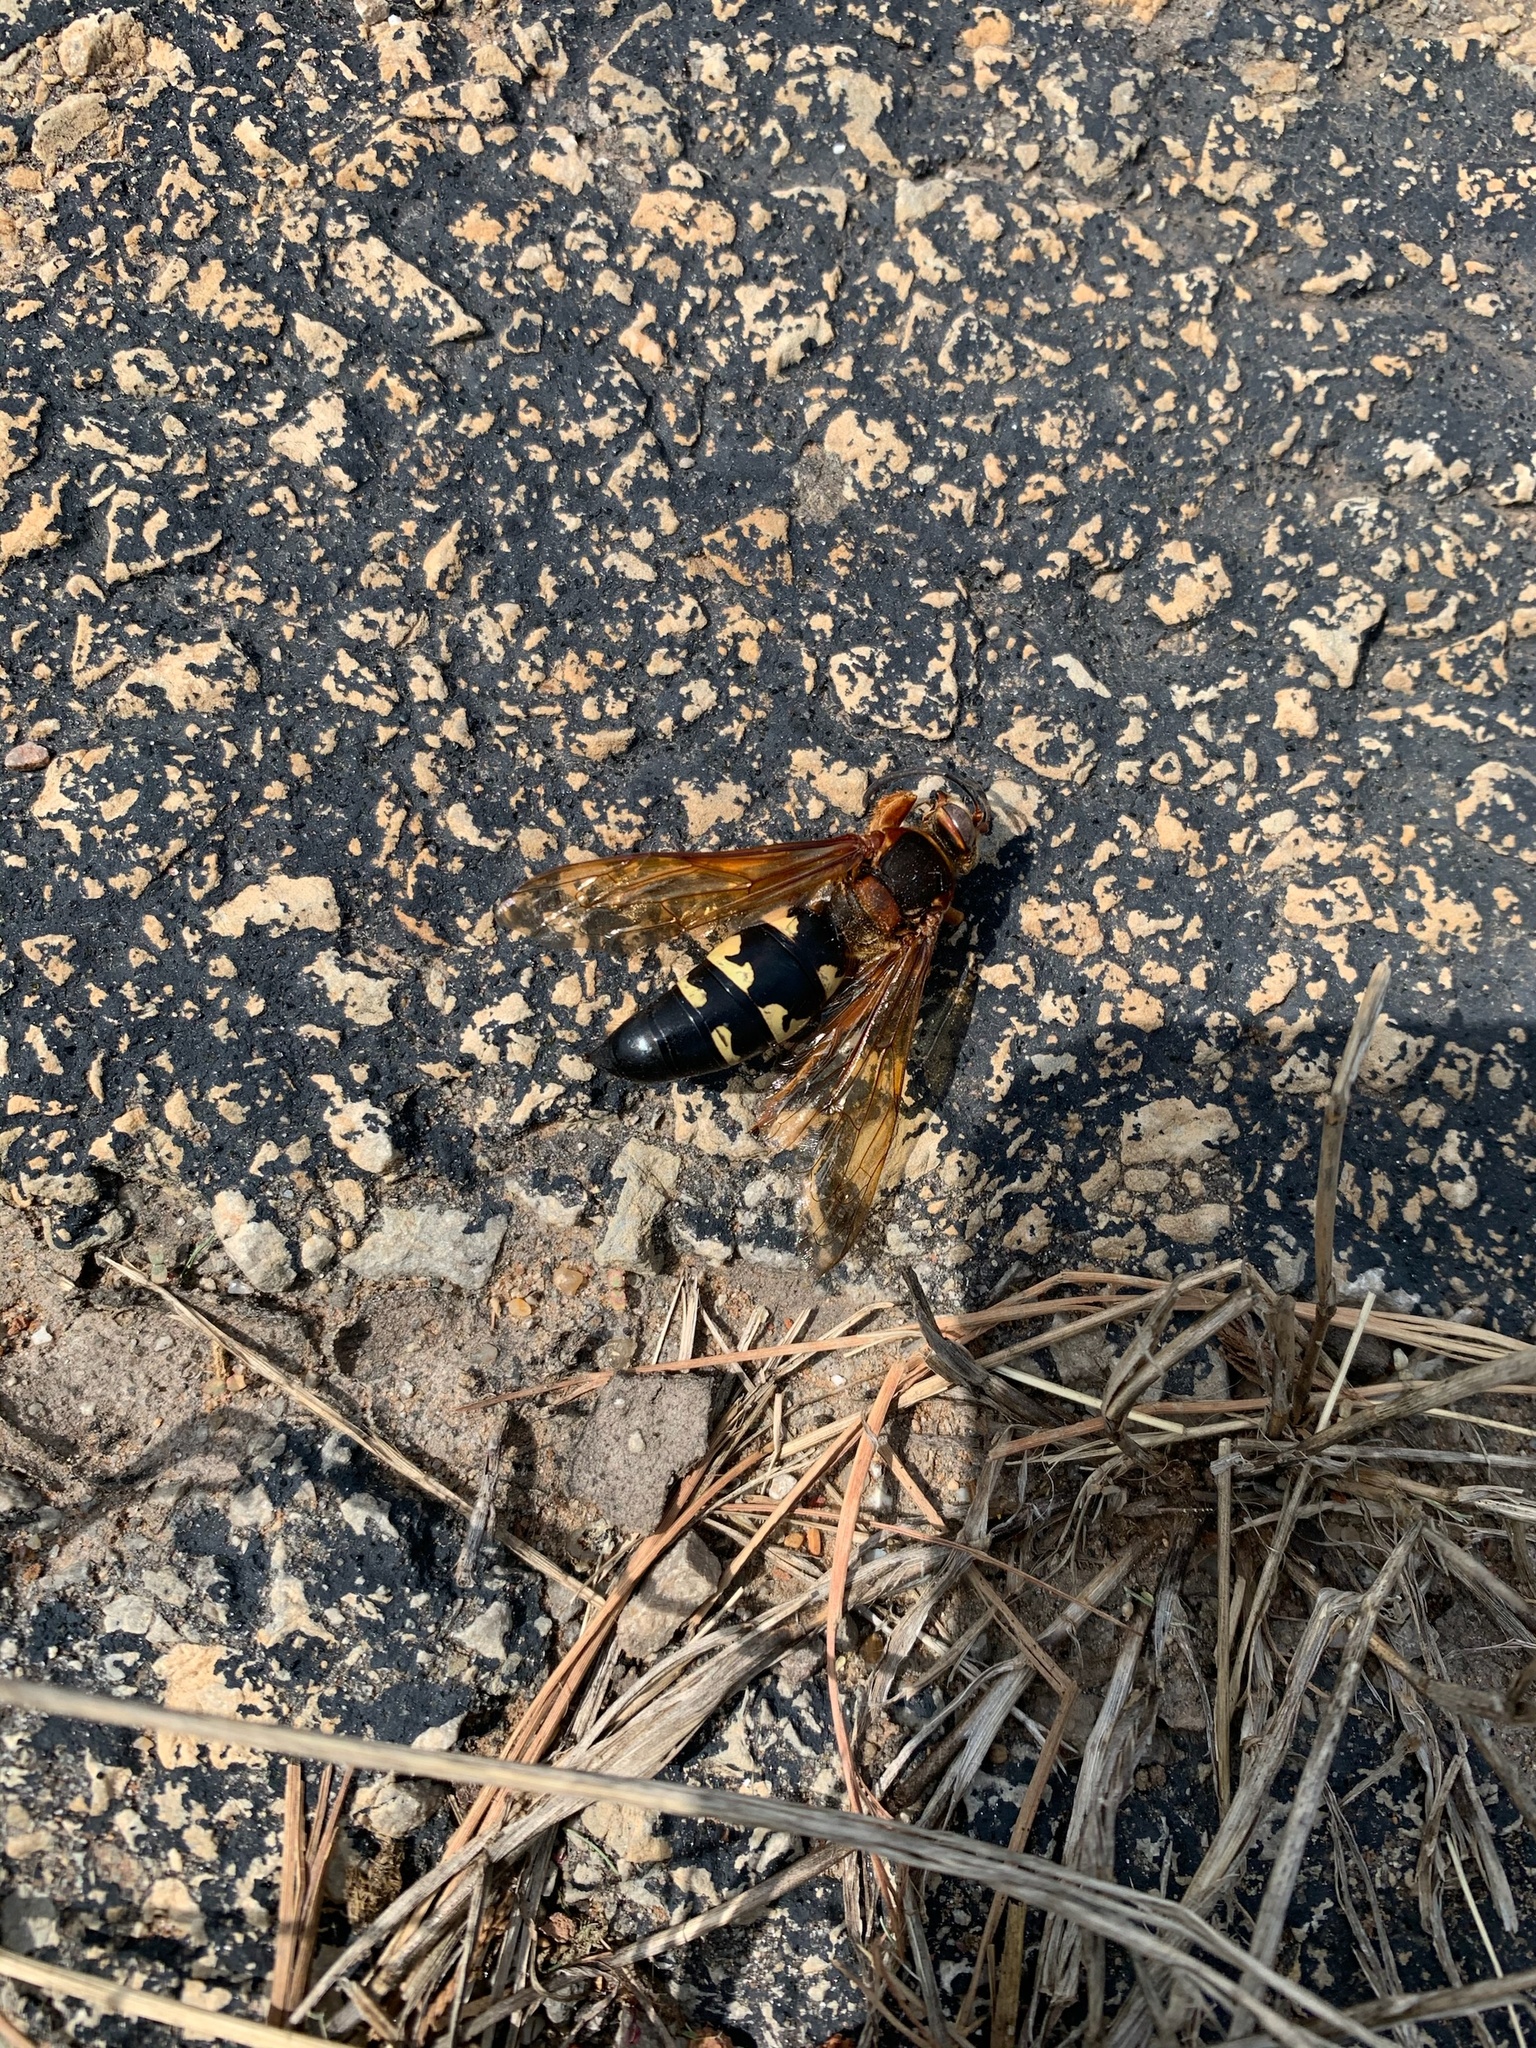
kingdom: Animalia
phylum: Arthropoda
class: Insecta
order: Hymenoptera
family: Crabronidae
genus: Sphecius
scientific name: Sphecius speciosus
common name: Cicada killer
